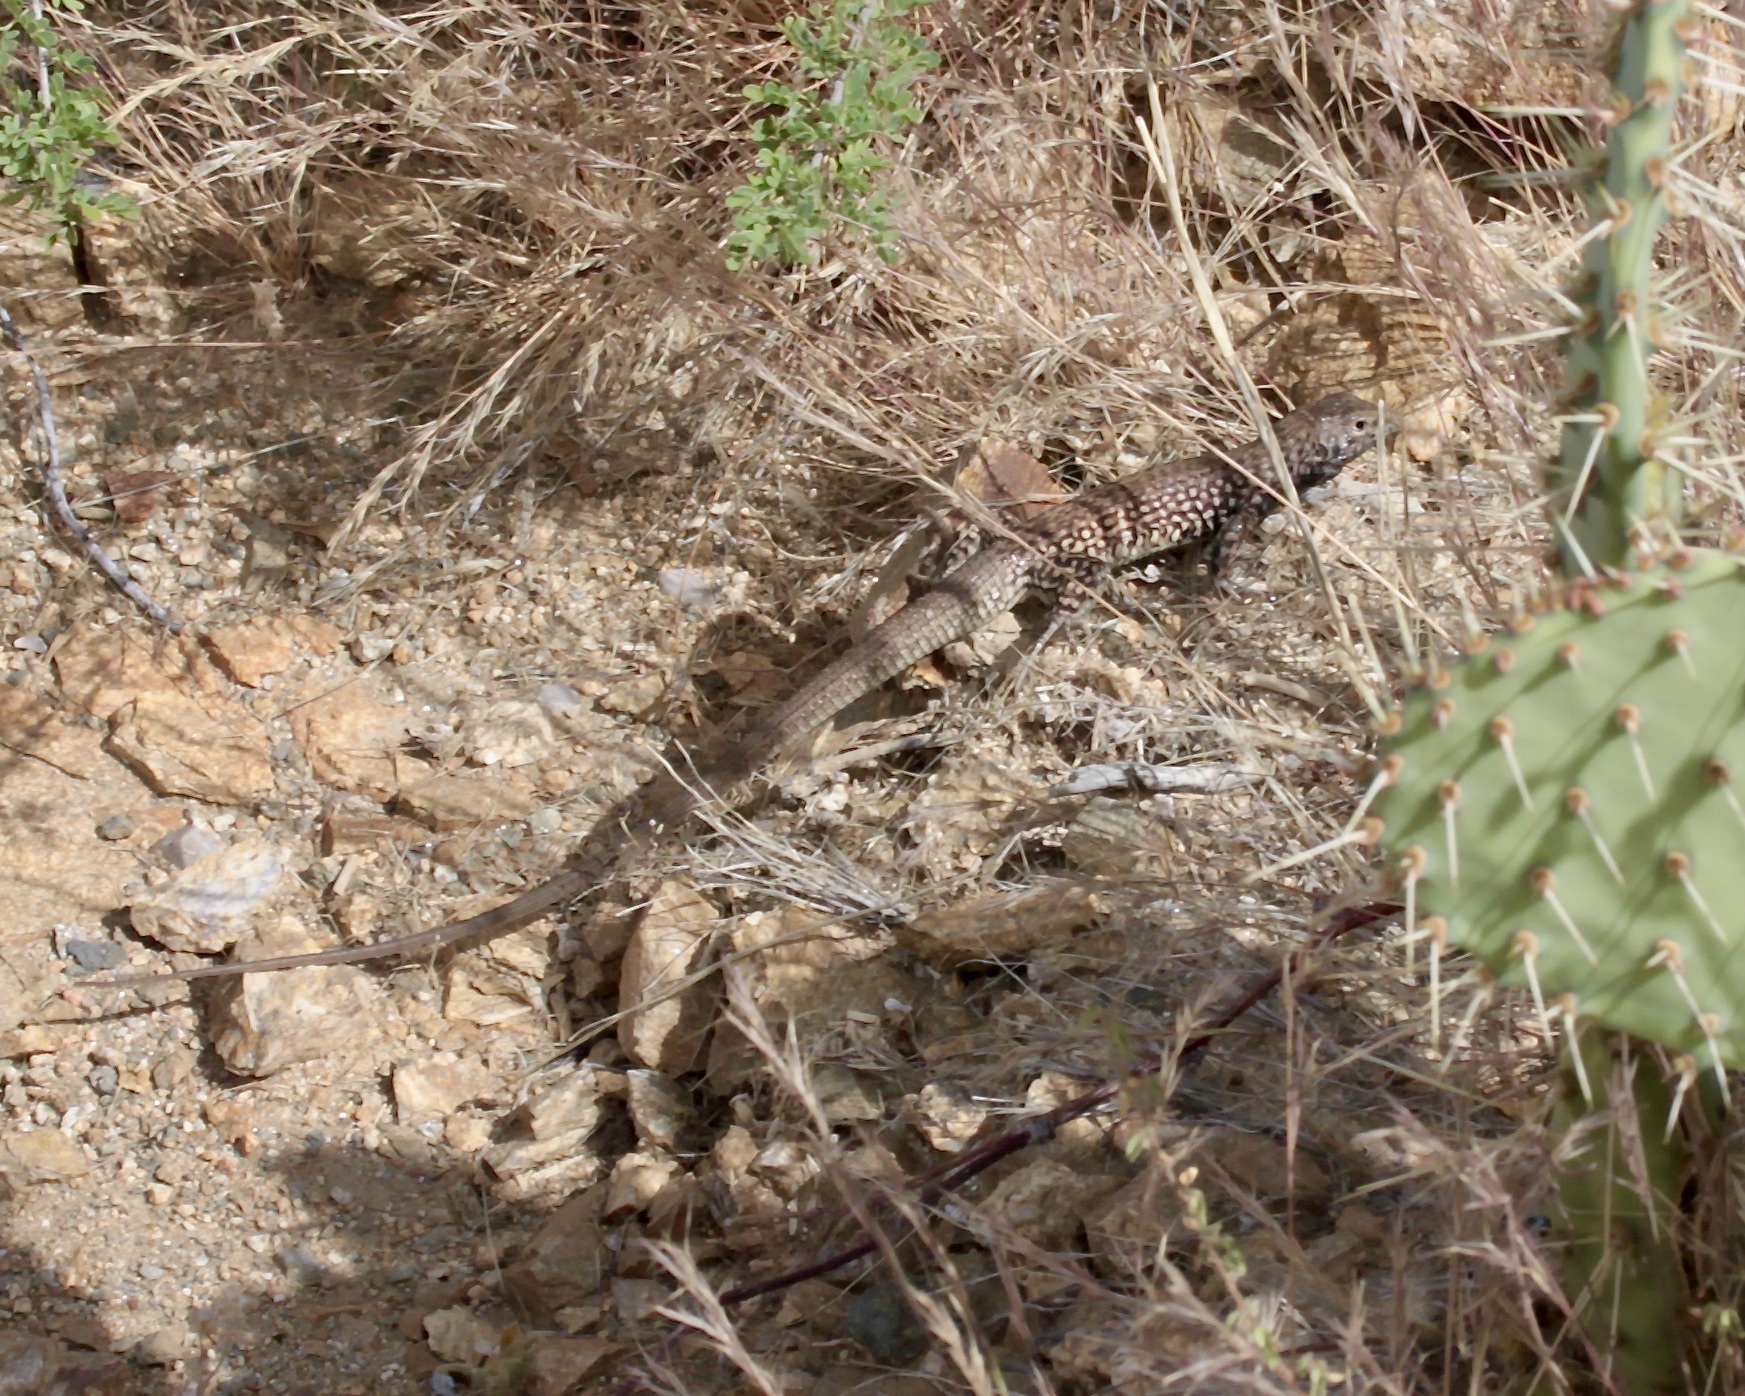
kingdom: Animalia
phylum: Chordata
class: Squamata
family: Teiidae
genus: Aspidoscelis
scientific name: Aspidoscelis tigris
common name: Tiger whiptail
